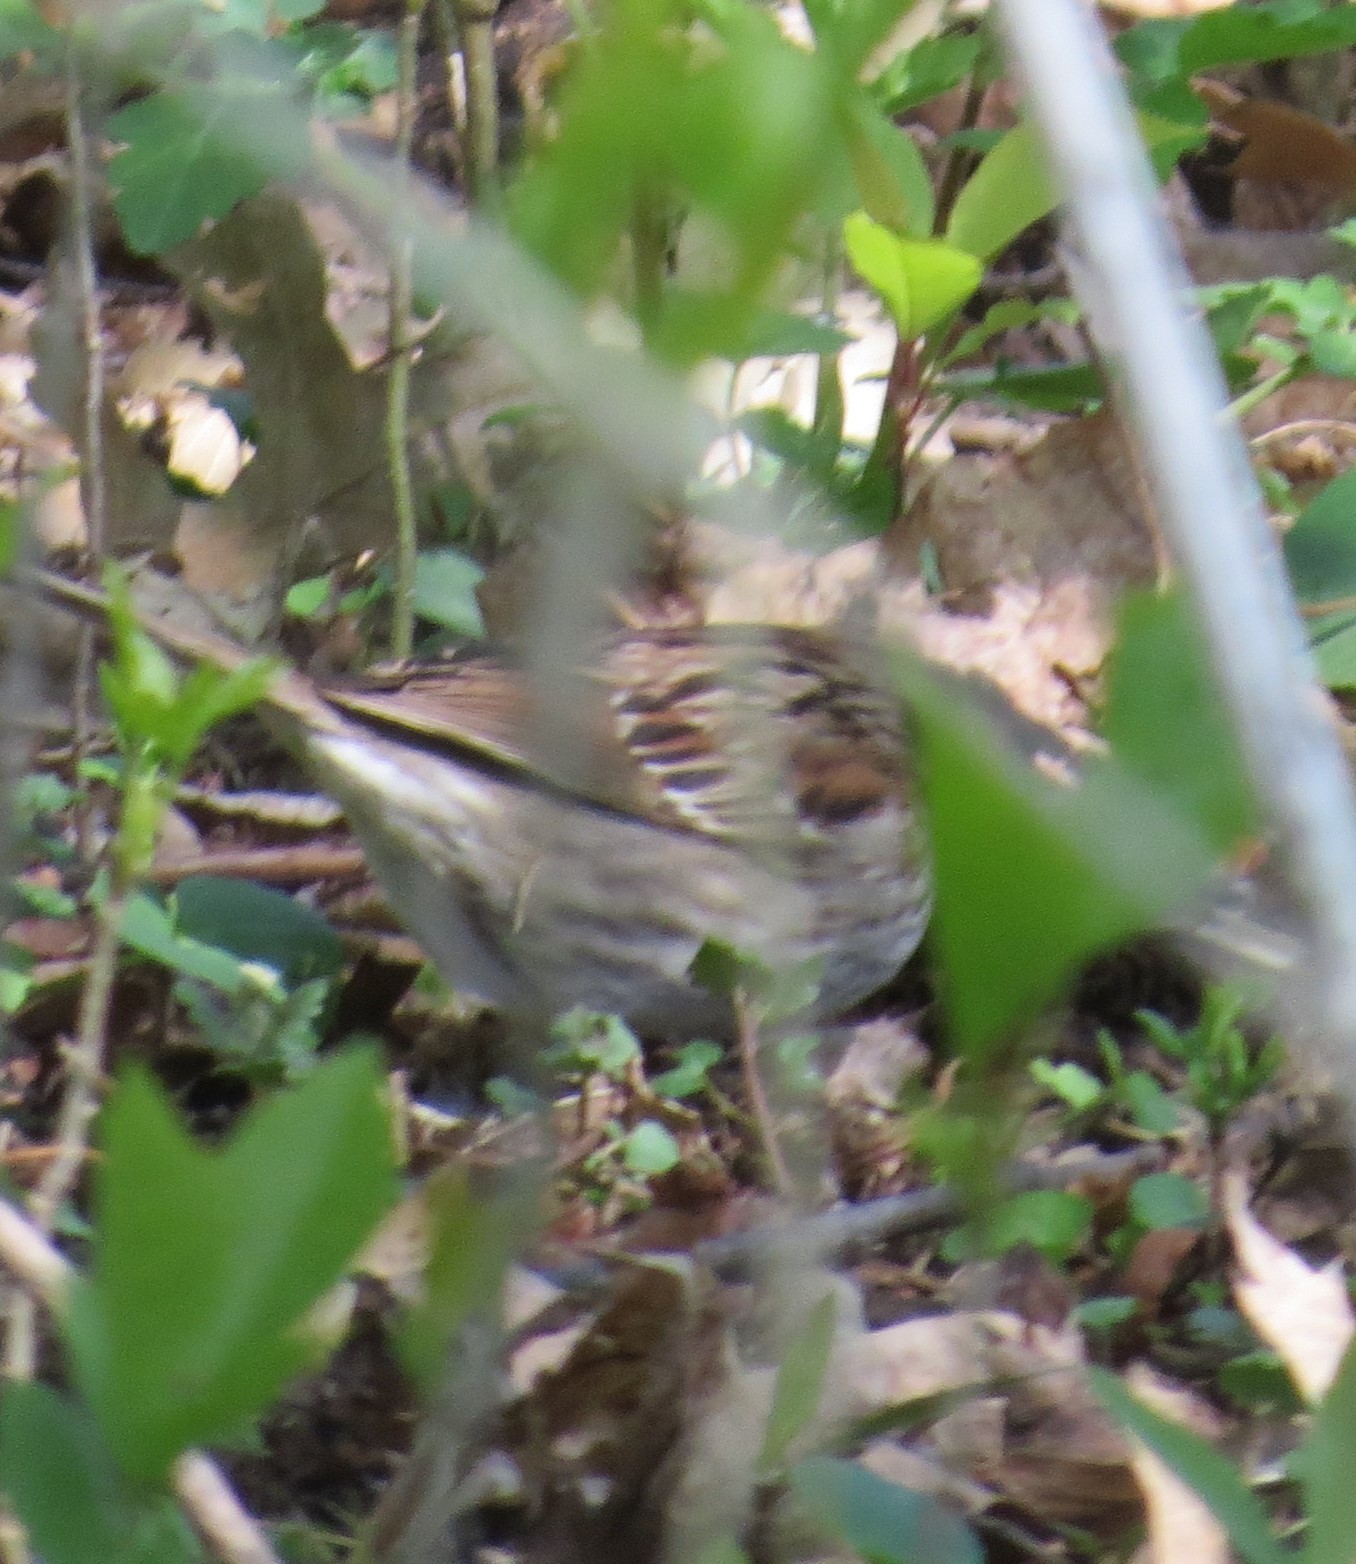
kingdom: Animalia
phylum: Chordata
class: Aves
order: Passeriformes
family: Passerellidae
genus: Zonotrichia
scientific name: Zonotrichia albicollis
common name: White-throated sparrow
